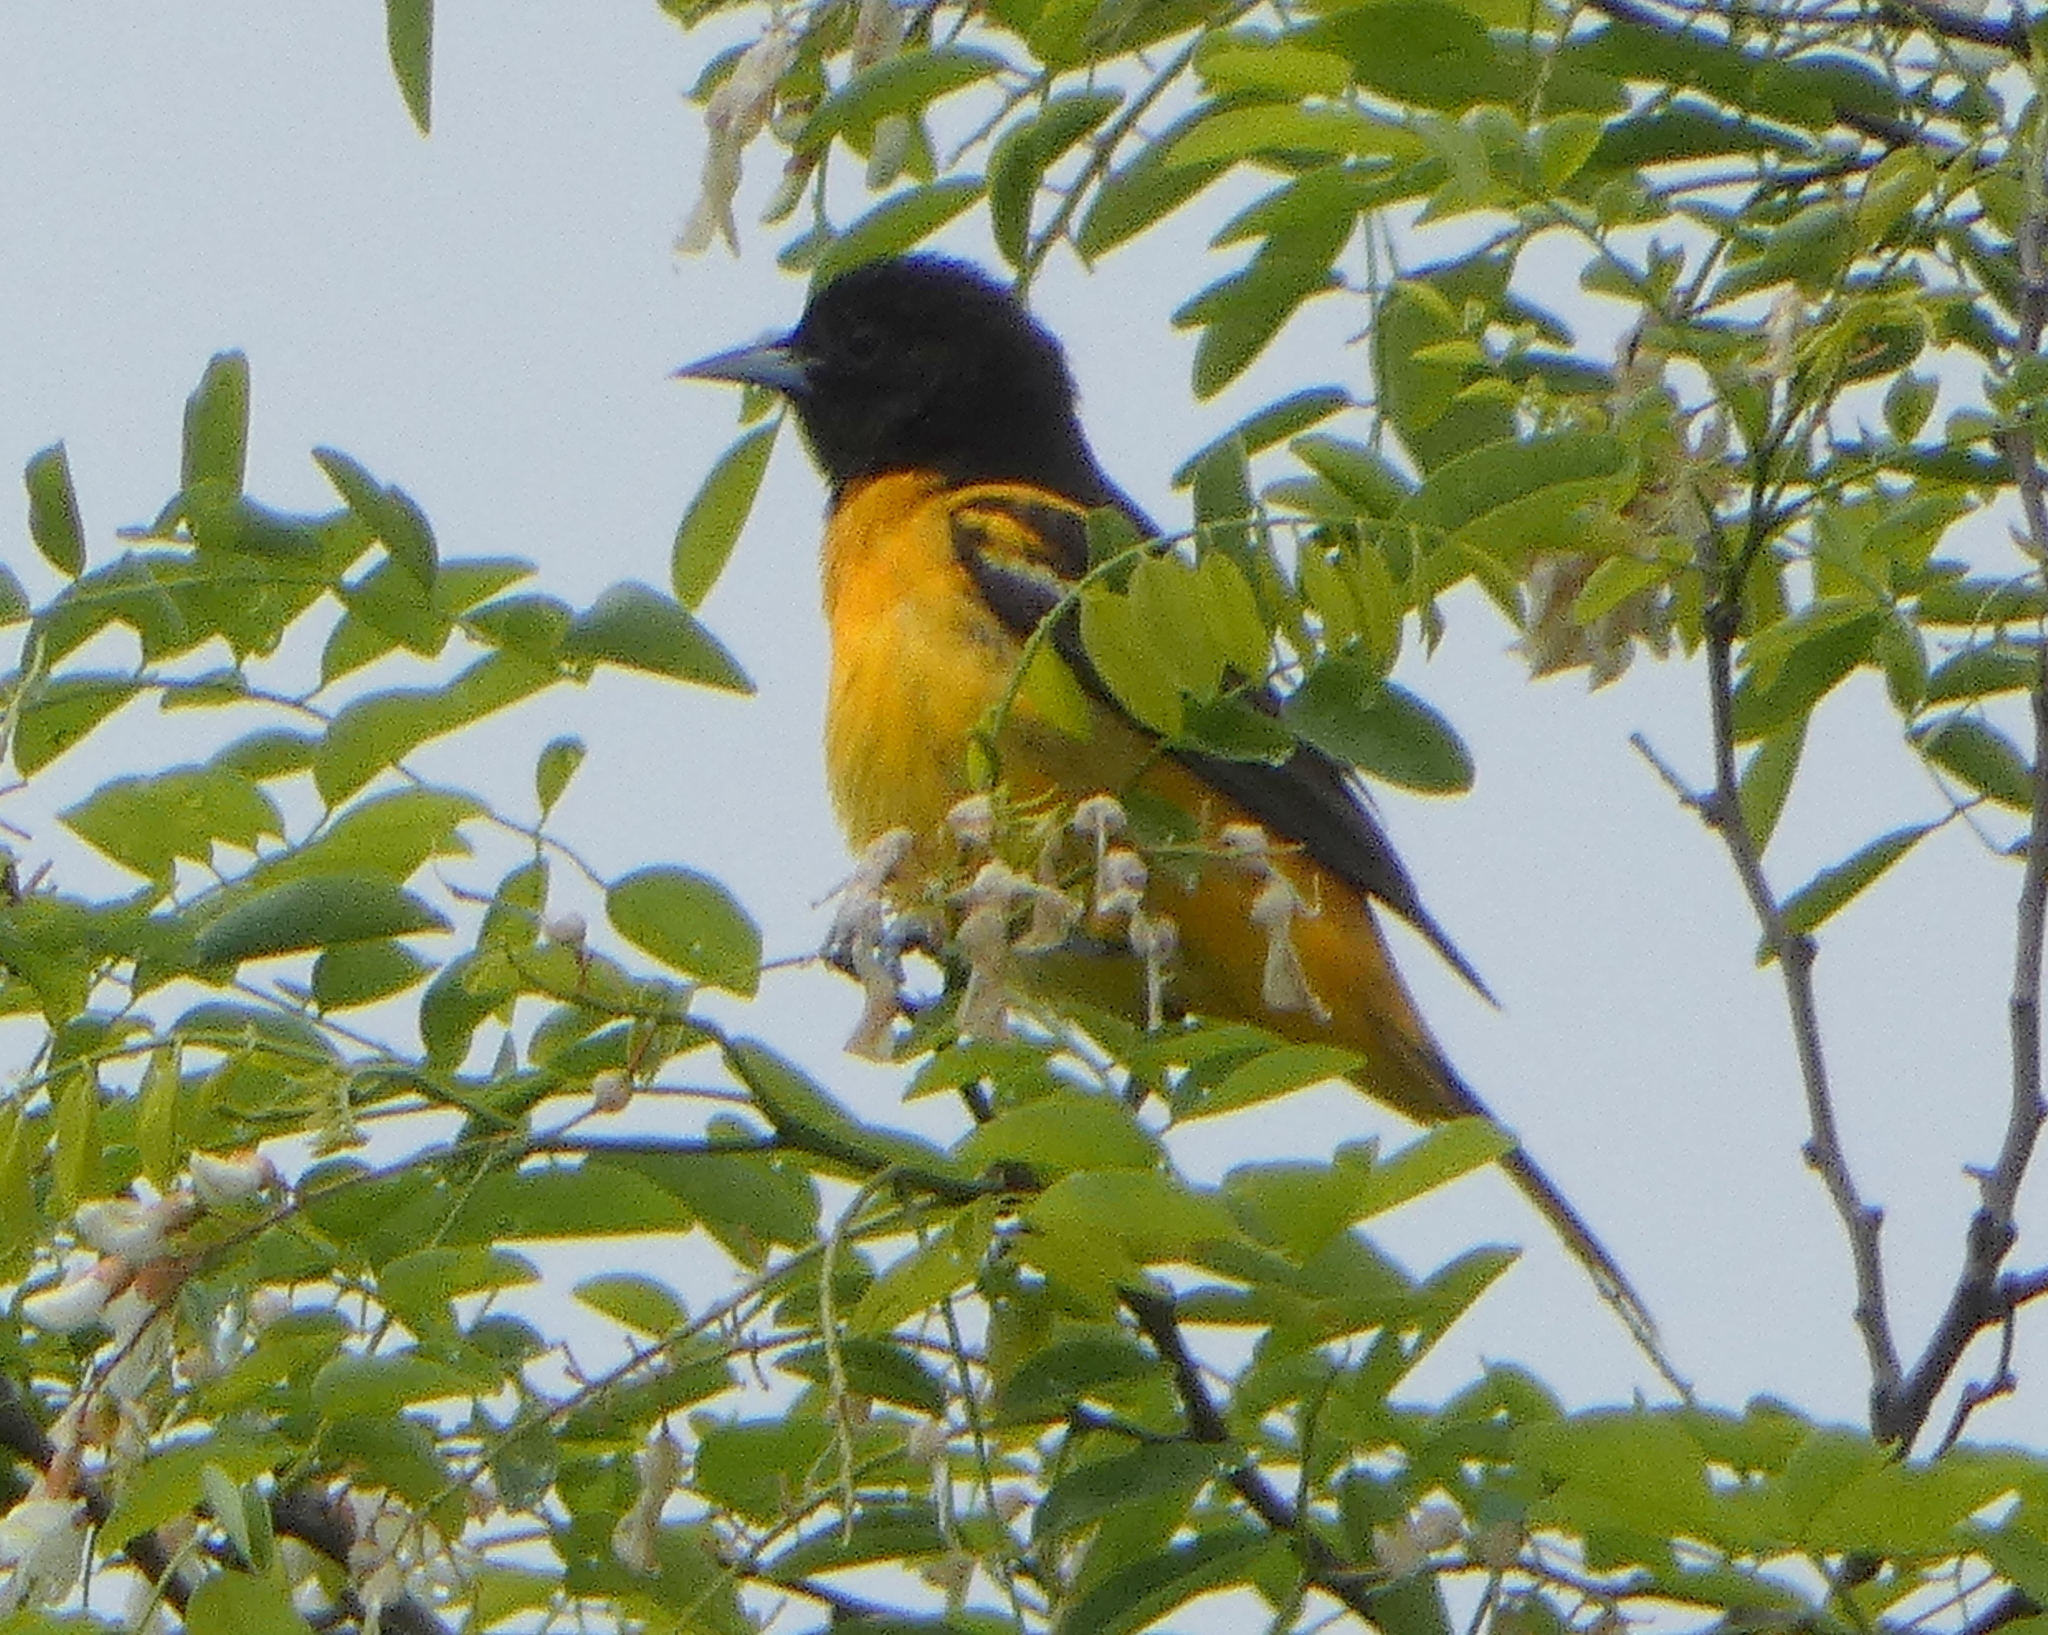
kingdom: Animalia
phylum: Chordata
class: Aves
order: Passeriformes
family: Icteridae
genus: Icterus
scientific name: Icterus galbula
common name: Baltimore oriole
